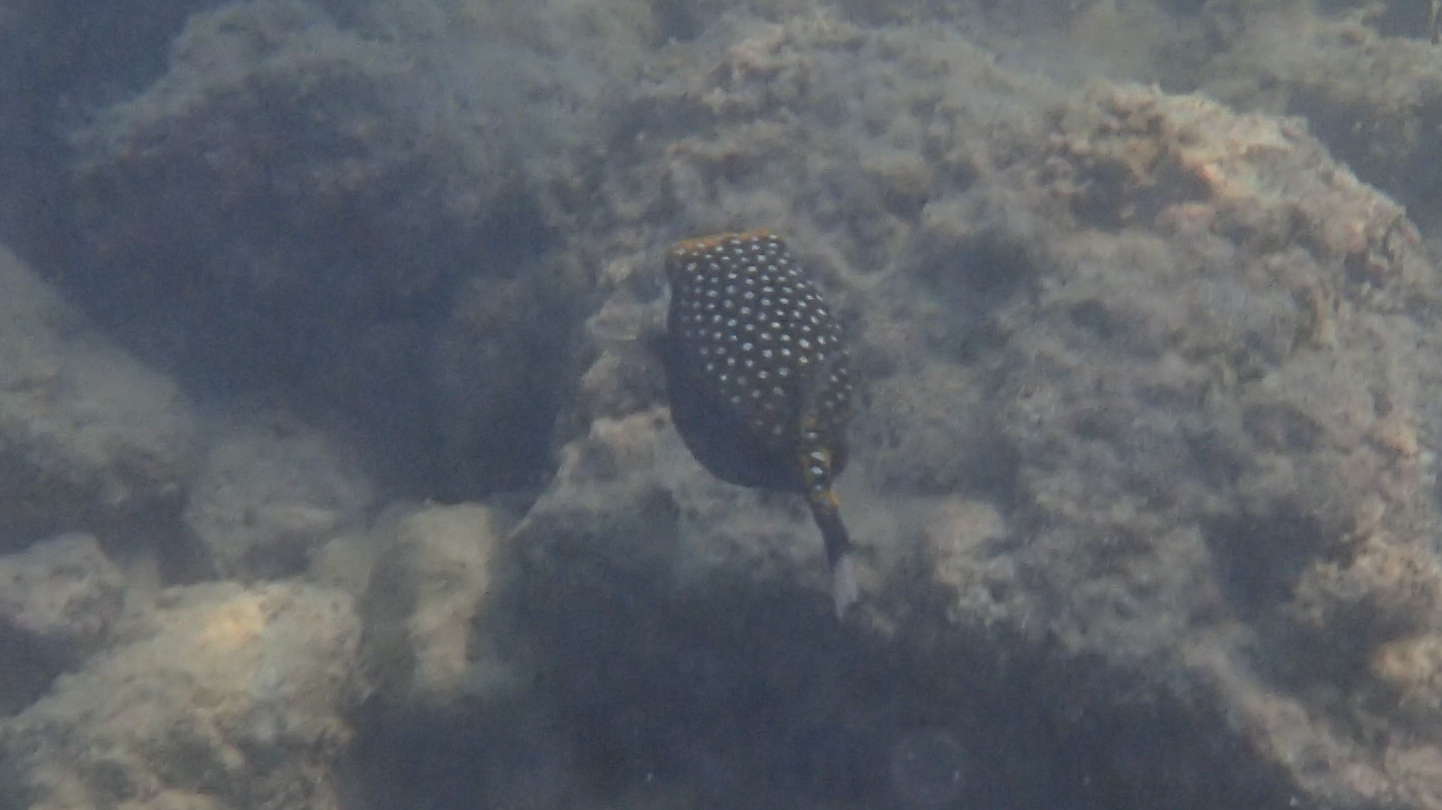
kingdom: Animalia
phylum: Chordata
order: Tetraodontiformes
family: Ostraciidae
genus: Ostracion
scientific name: Ostracion meleagris
